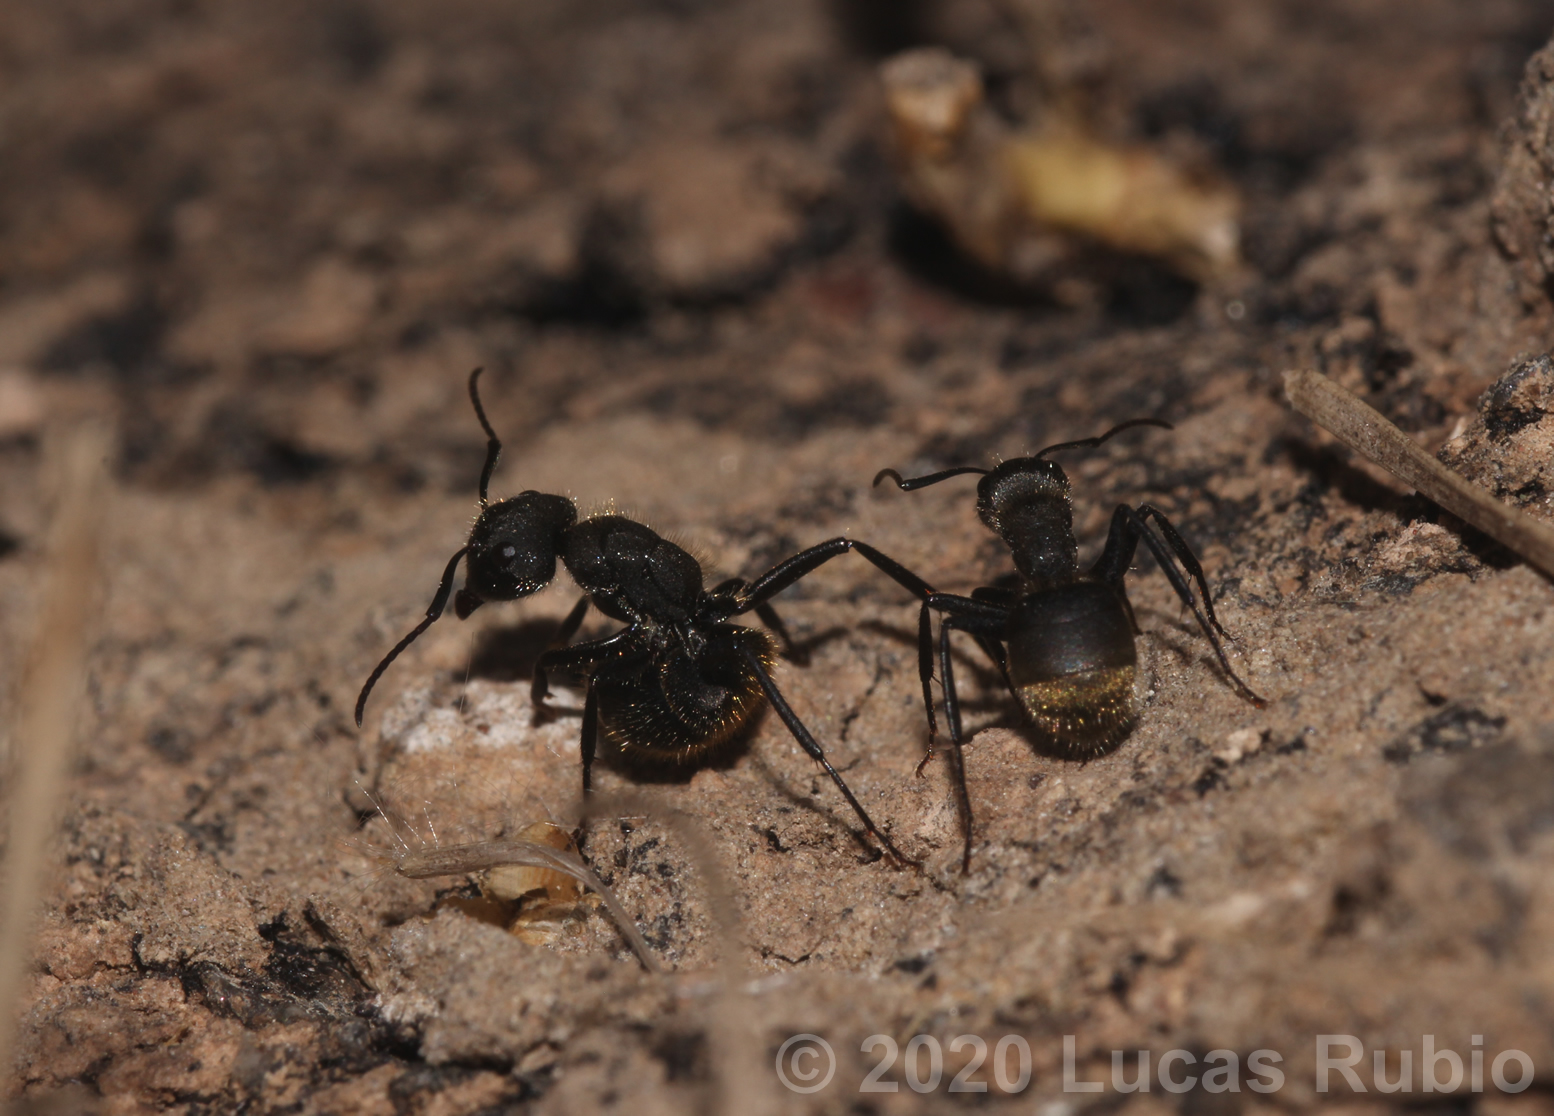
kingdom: Animalia
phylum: Arthropoda
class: Insecta
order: Hymenoptera
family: Formicidae
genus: Camponotus
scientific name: Camponotus mus
